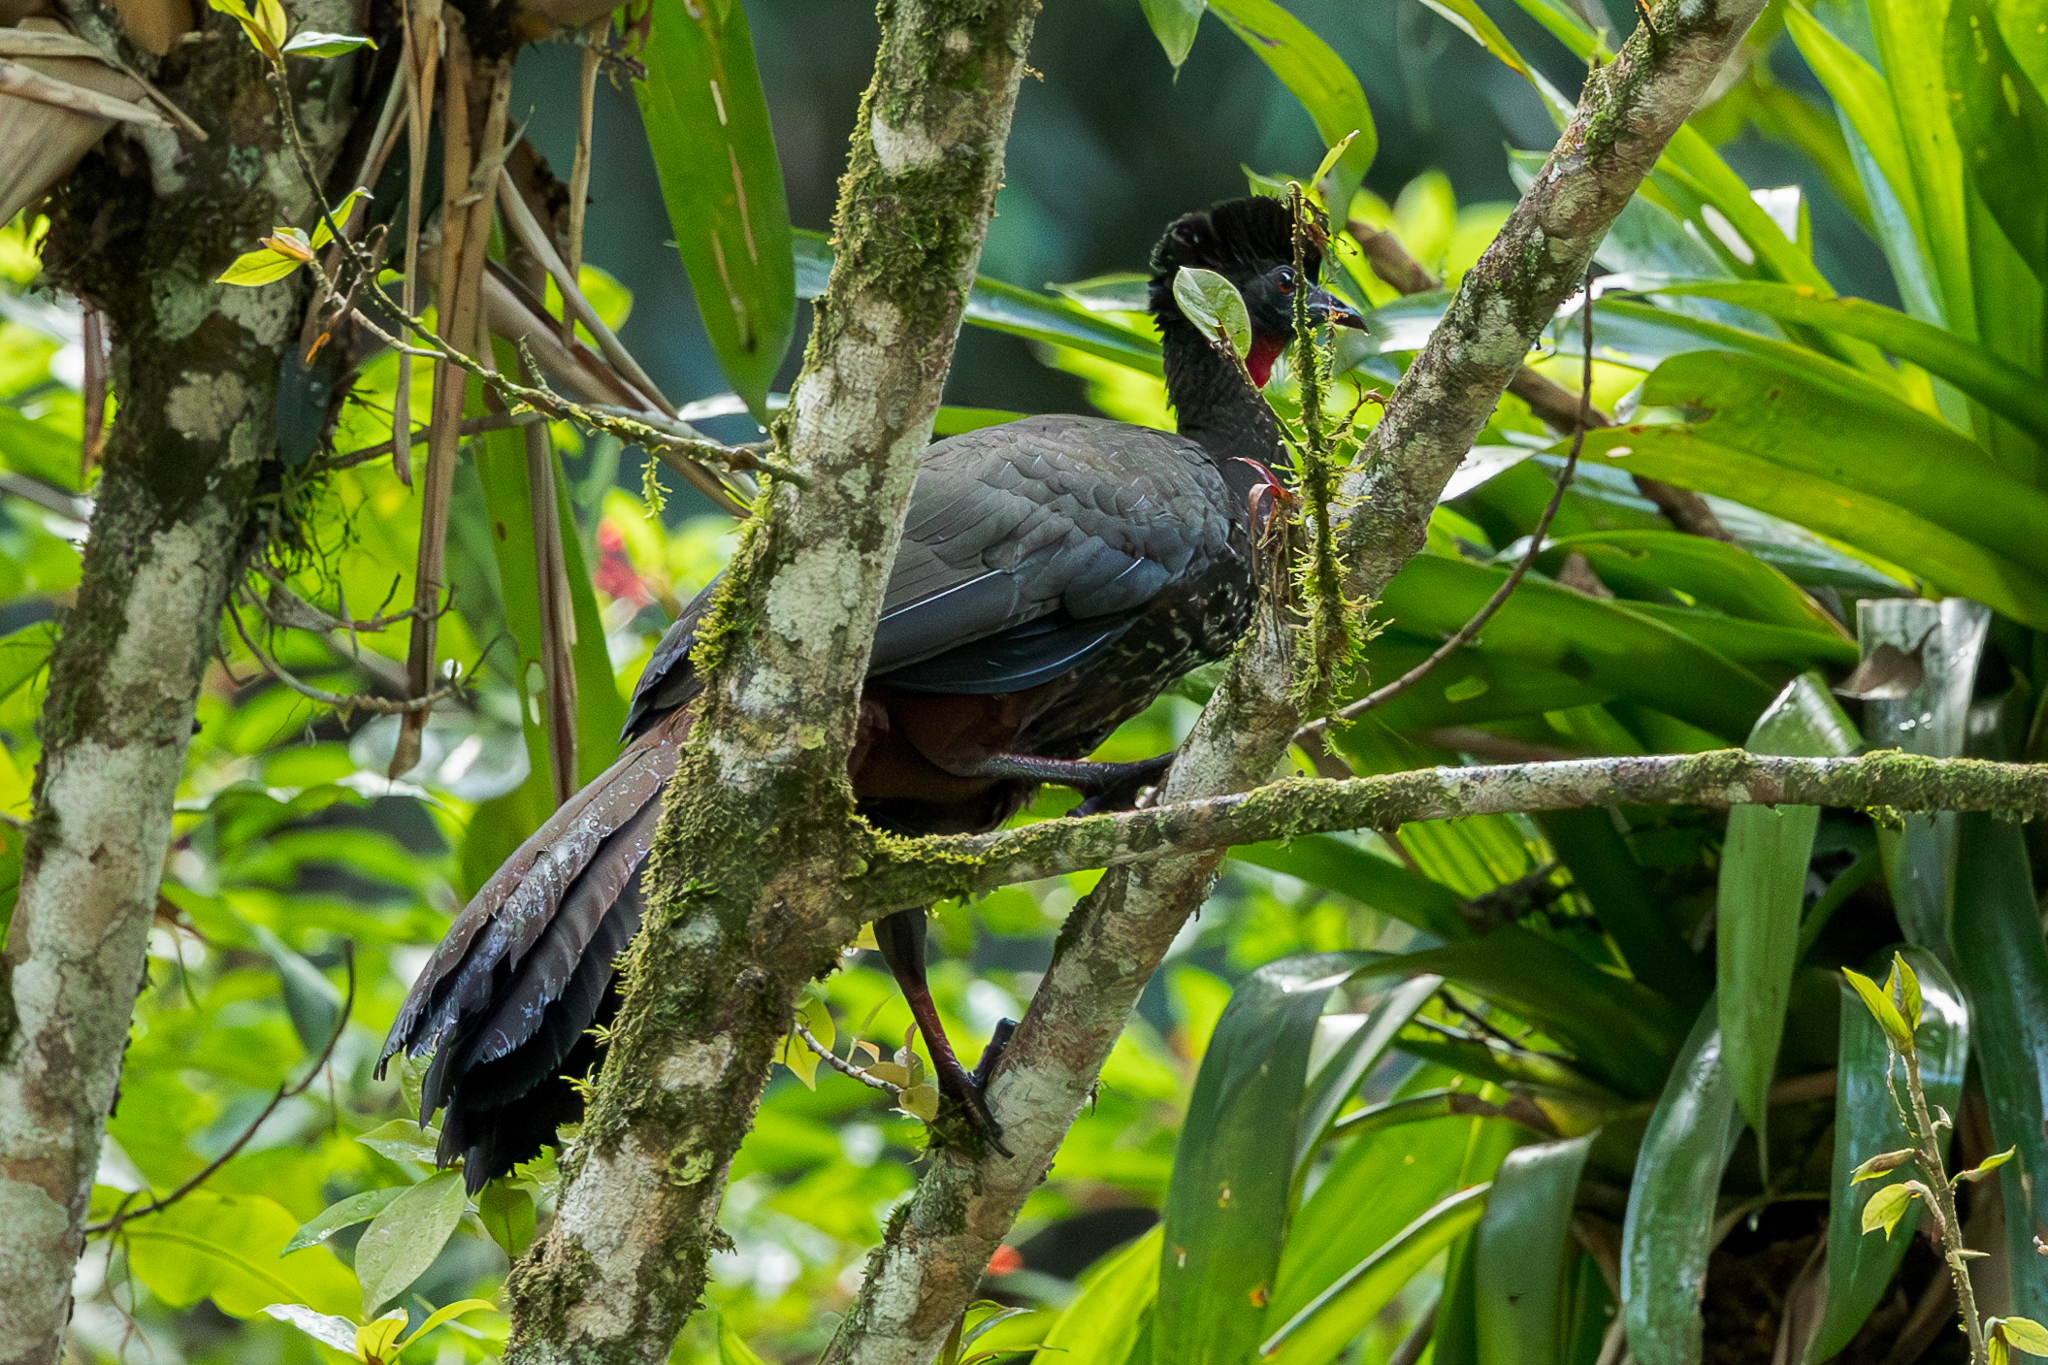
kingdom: Animalia
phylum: Chordata
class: Aves
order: Galliformes
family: Cracidae
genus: Penelope
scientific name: Penelope purpurascens
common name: Crested guan
